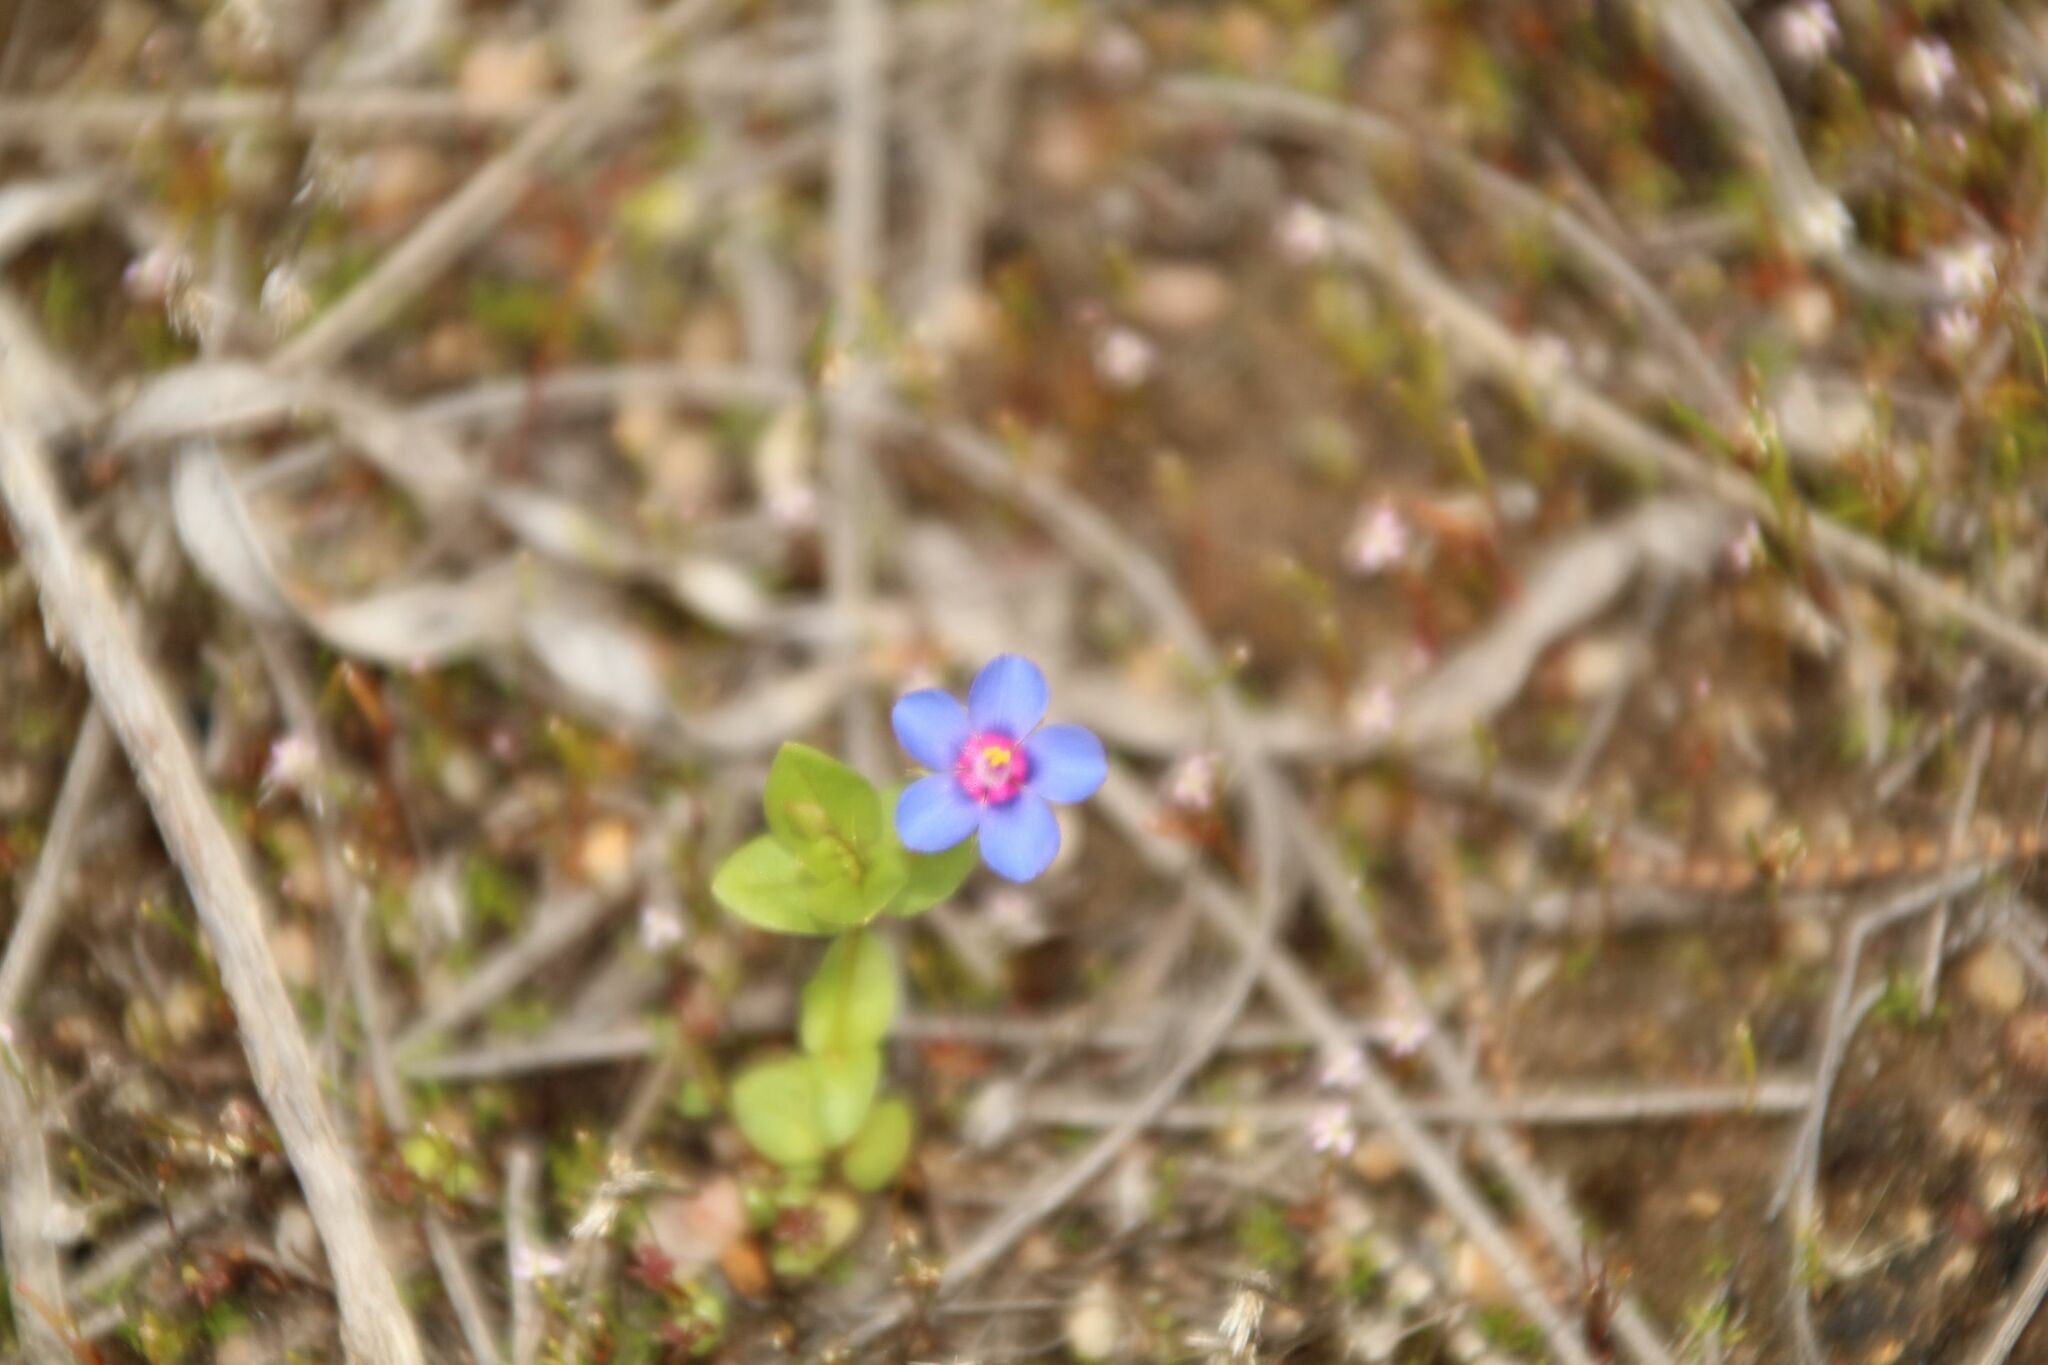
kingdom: Plantae
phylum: Tracheophyta
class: Magnoliopsida
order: Ericales
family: Primulaceae
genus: Lysimachia
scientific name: Lysimachia loeflingii
